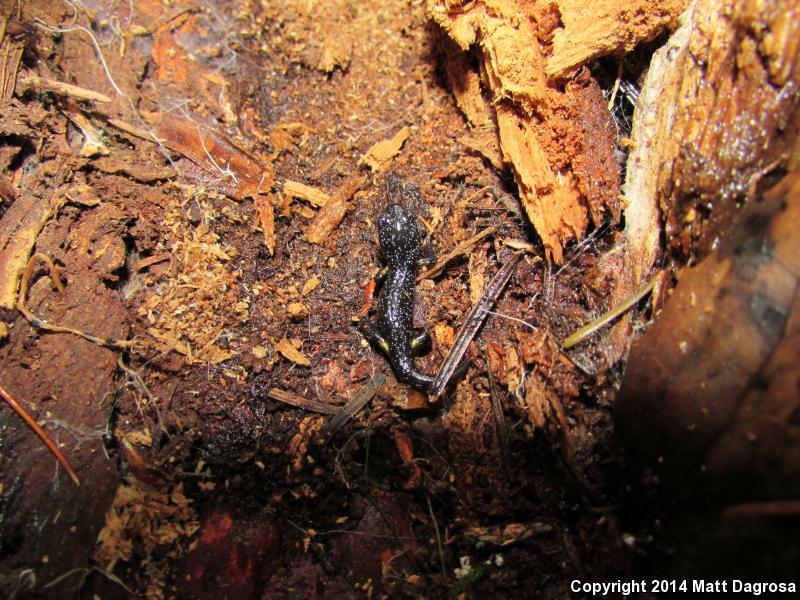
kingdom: Animalia
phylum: Chordata
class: Amphibia
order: Caudata
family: Plethodontidae
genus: Ensatina
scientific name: Ensatina eschscholtzii
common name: Ensatina
